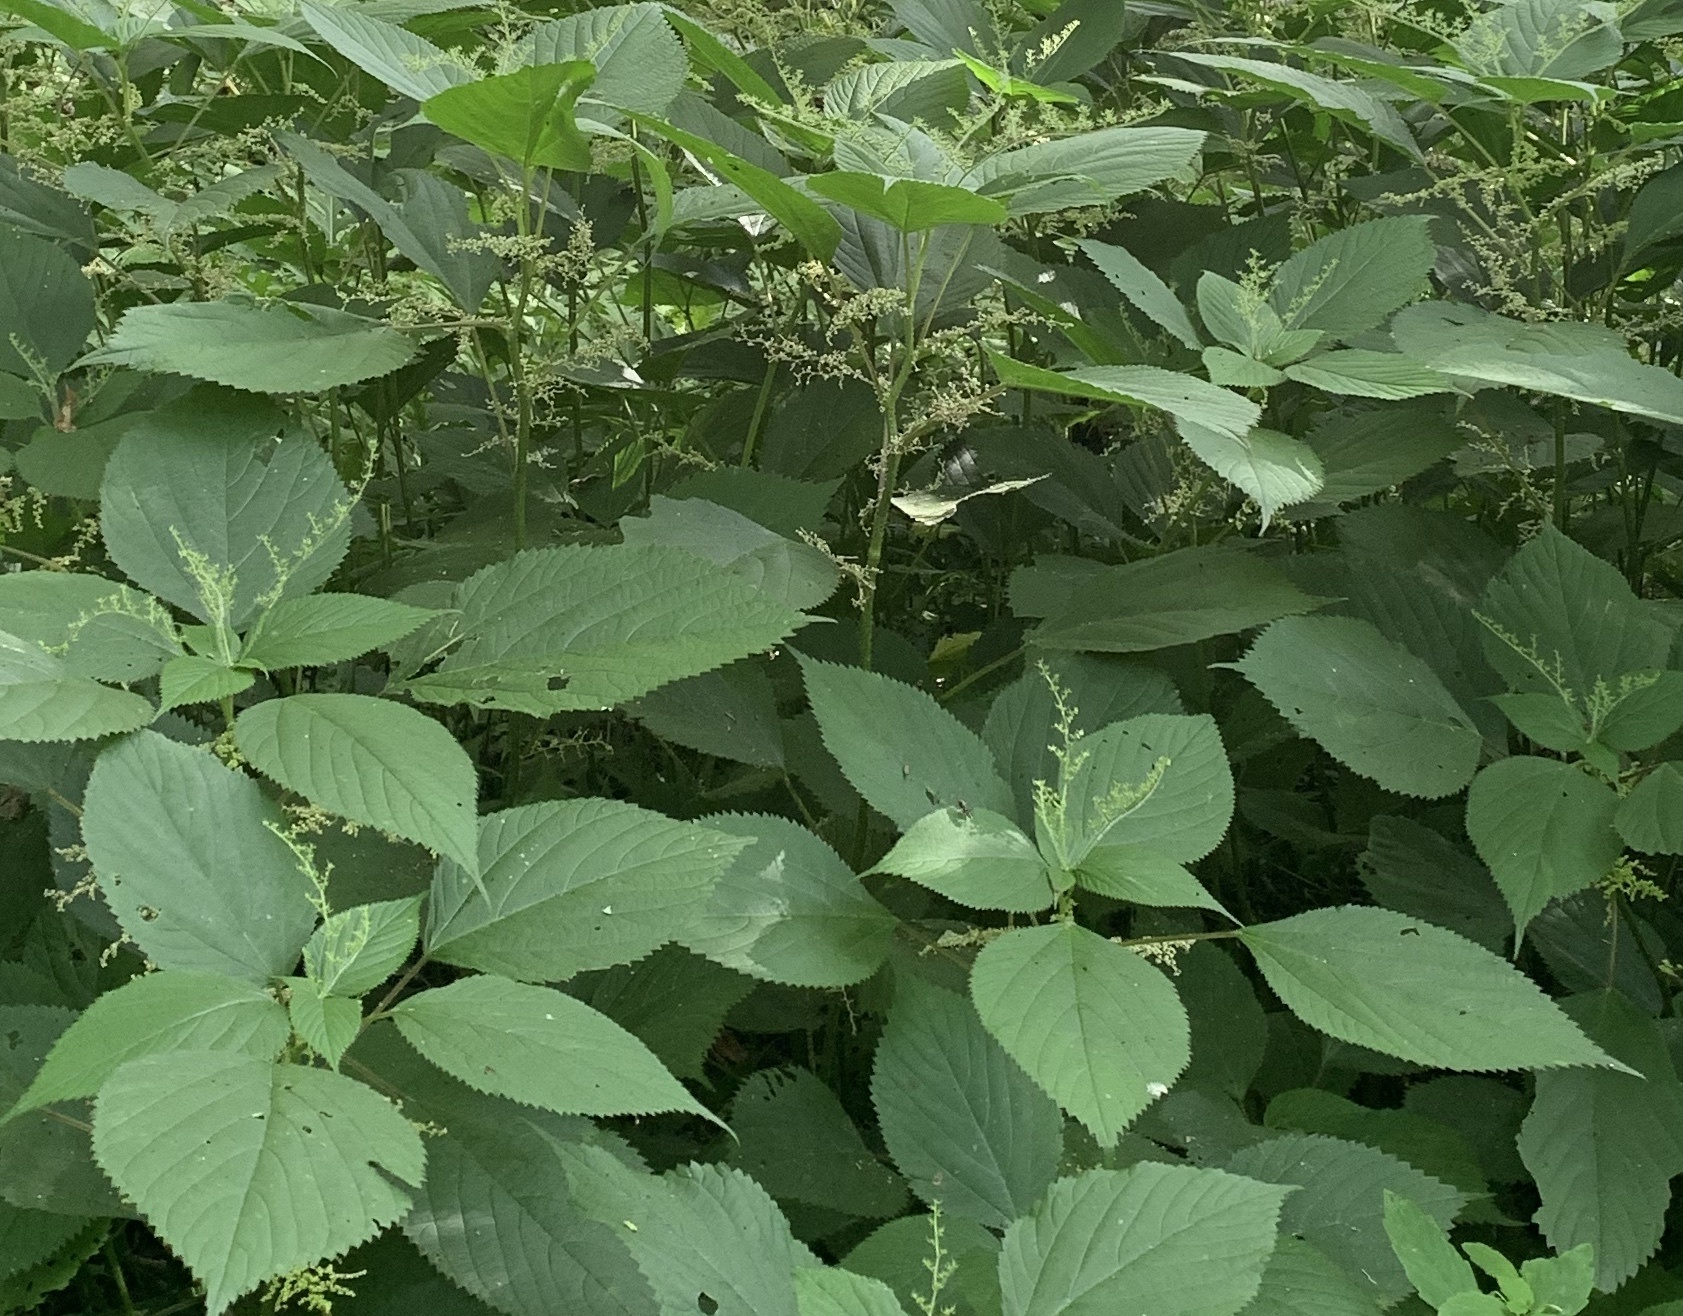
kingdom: Plantae
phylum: Tracheophyta
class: Magnoliopsida
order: Rosales
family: Urticaceae
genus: Laportea
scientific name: Laportea canadensis
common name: Canada nettle
